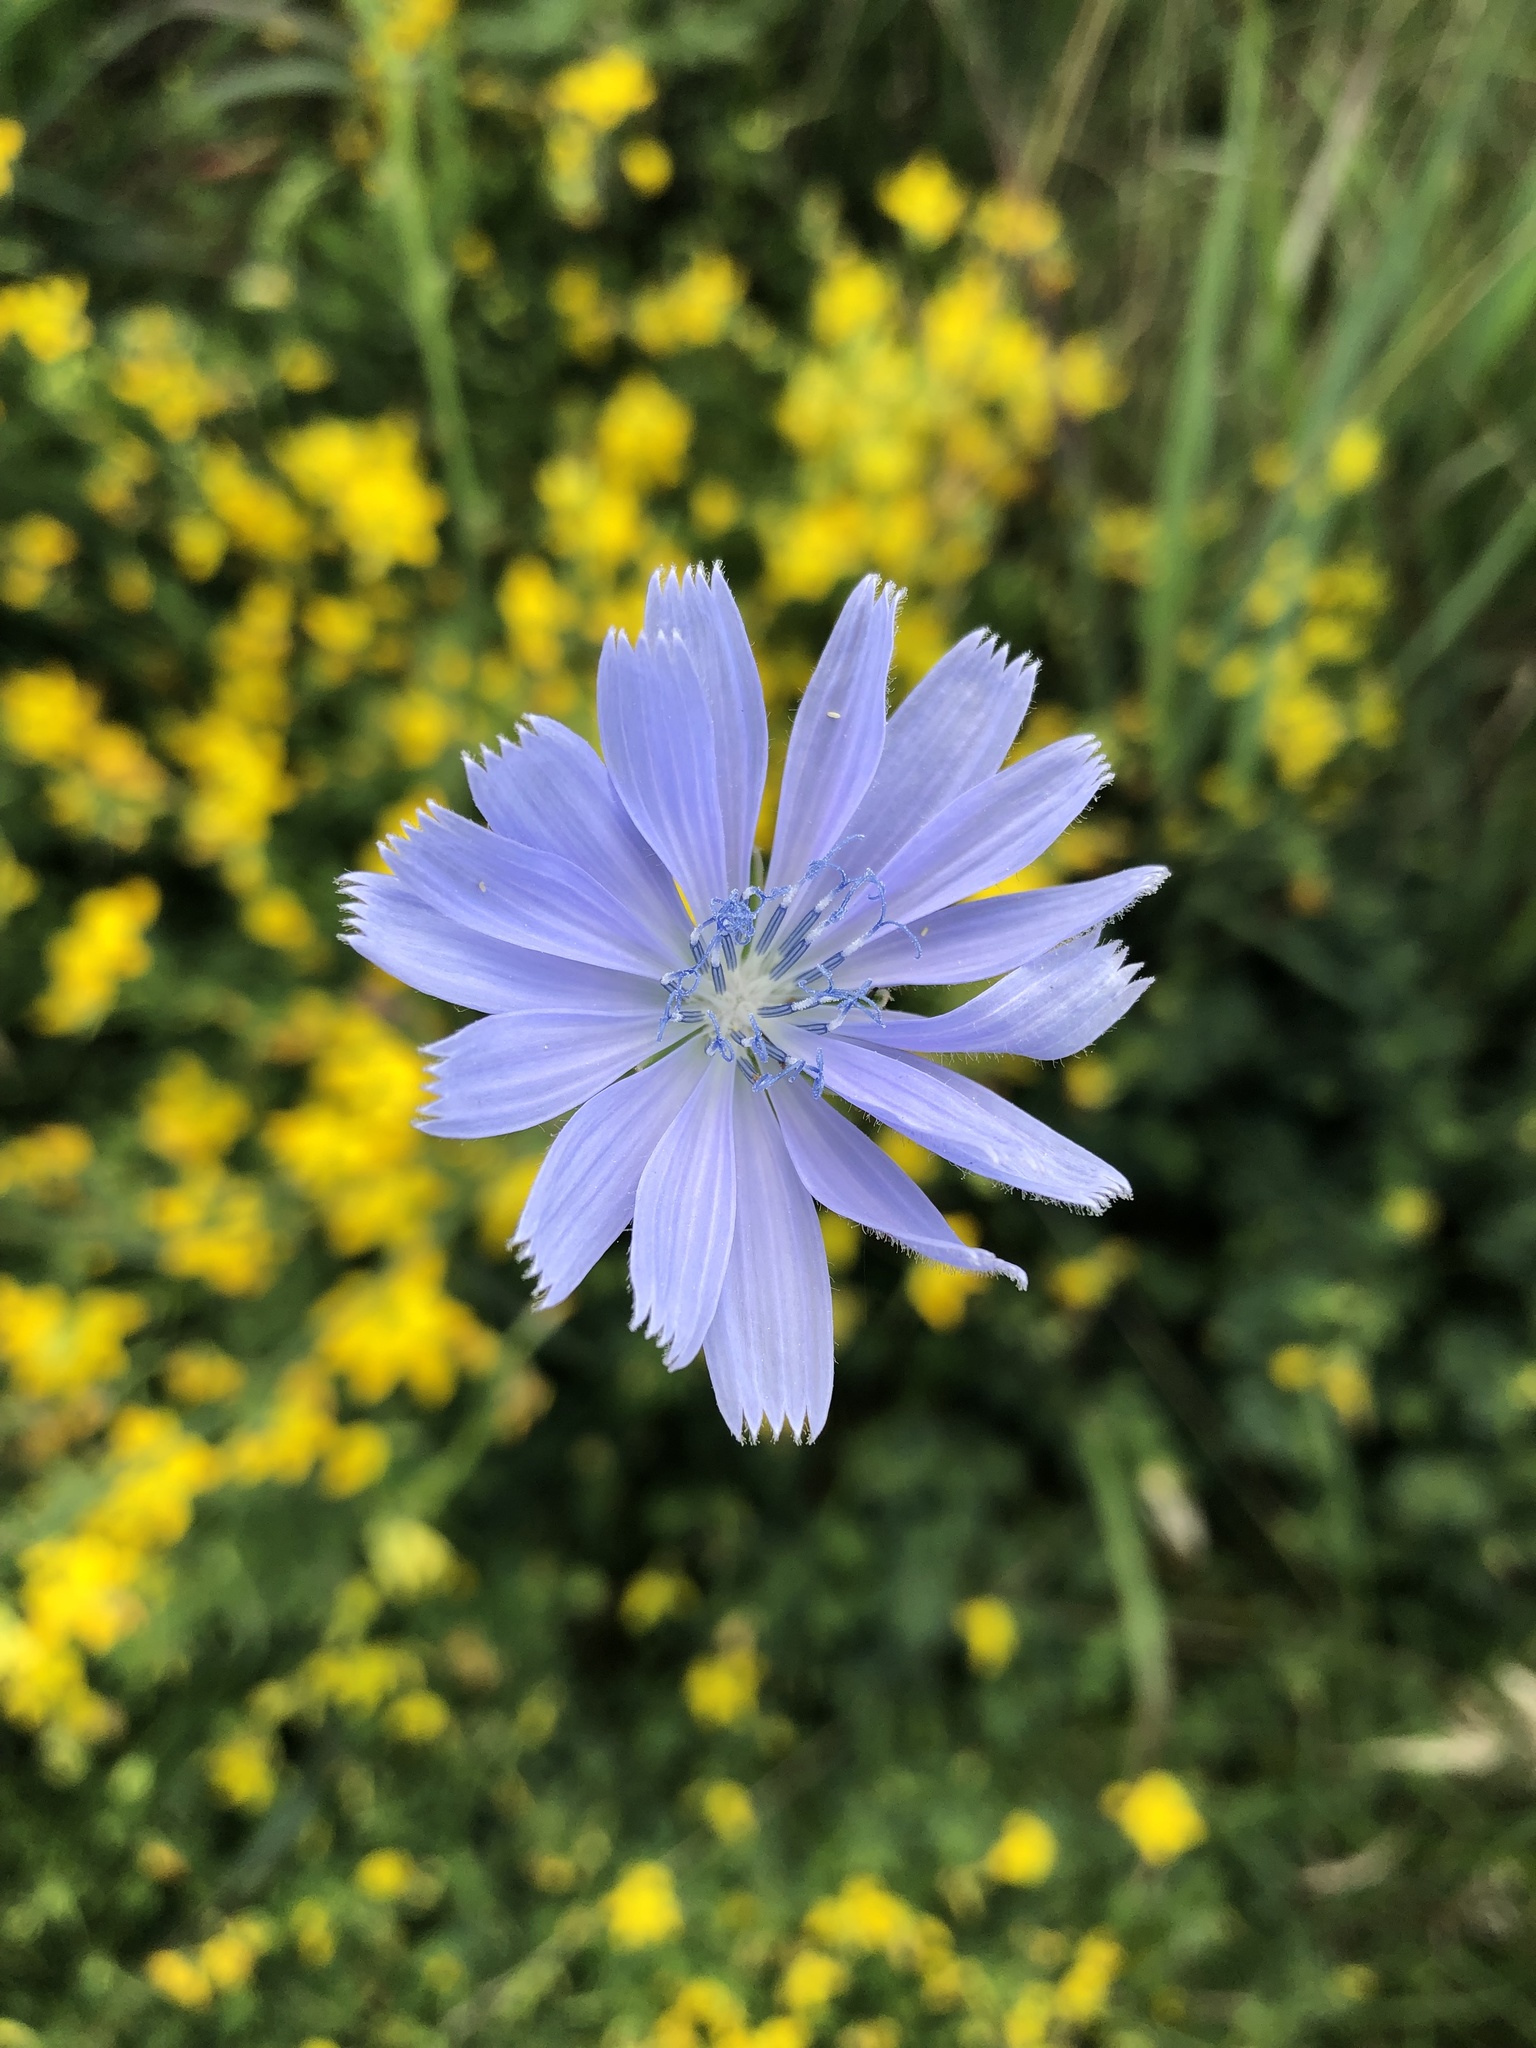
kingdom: Plantae
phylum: Tracheophyta
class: Magnoliopsida
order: Asterales
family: Asteraceae
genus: Cichorium
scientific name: Cichorium intybus
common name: Chicory
